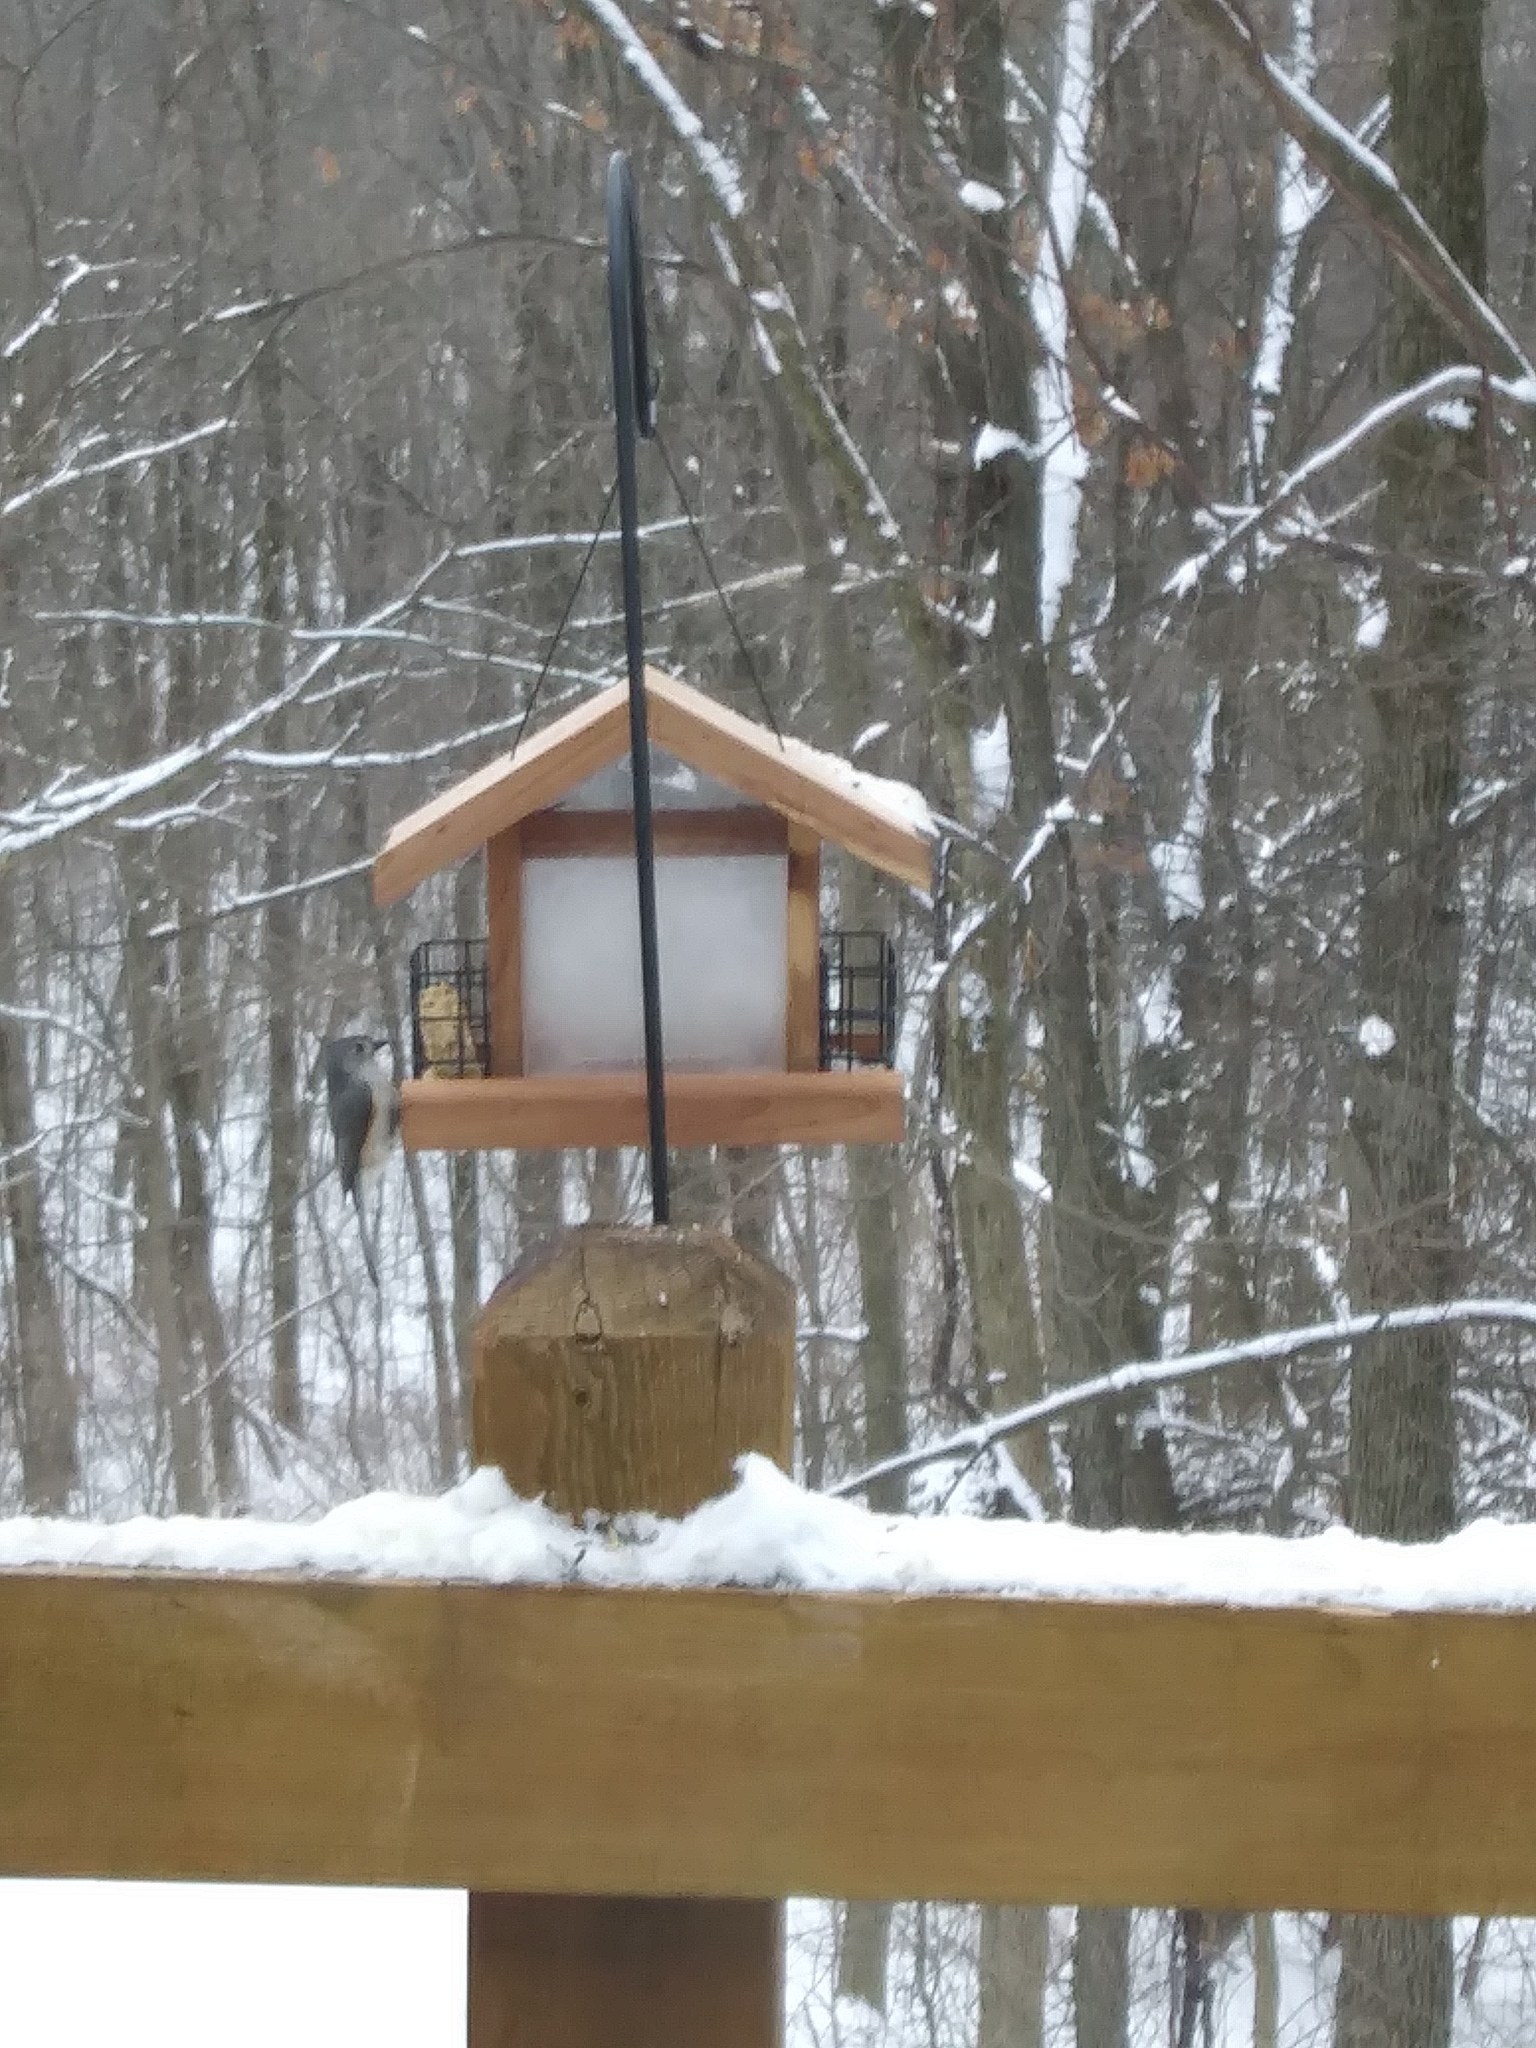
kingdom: Animalia
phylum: Chordata
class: Aves
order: Passeriformes
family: Paridae
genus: Baeolophus
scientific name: Baeolophus bicolor
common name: Tufted titmouse
